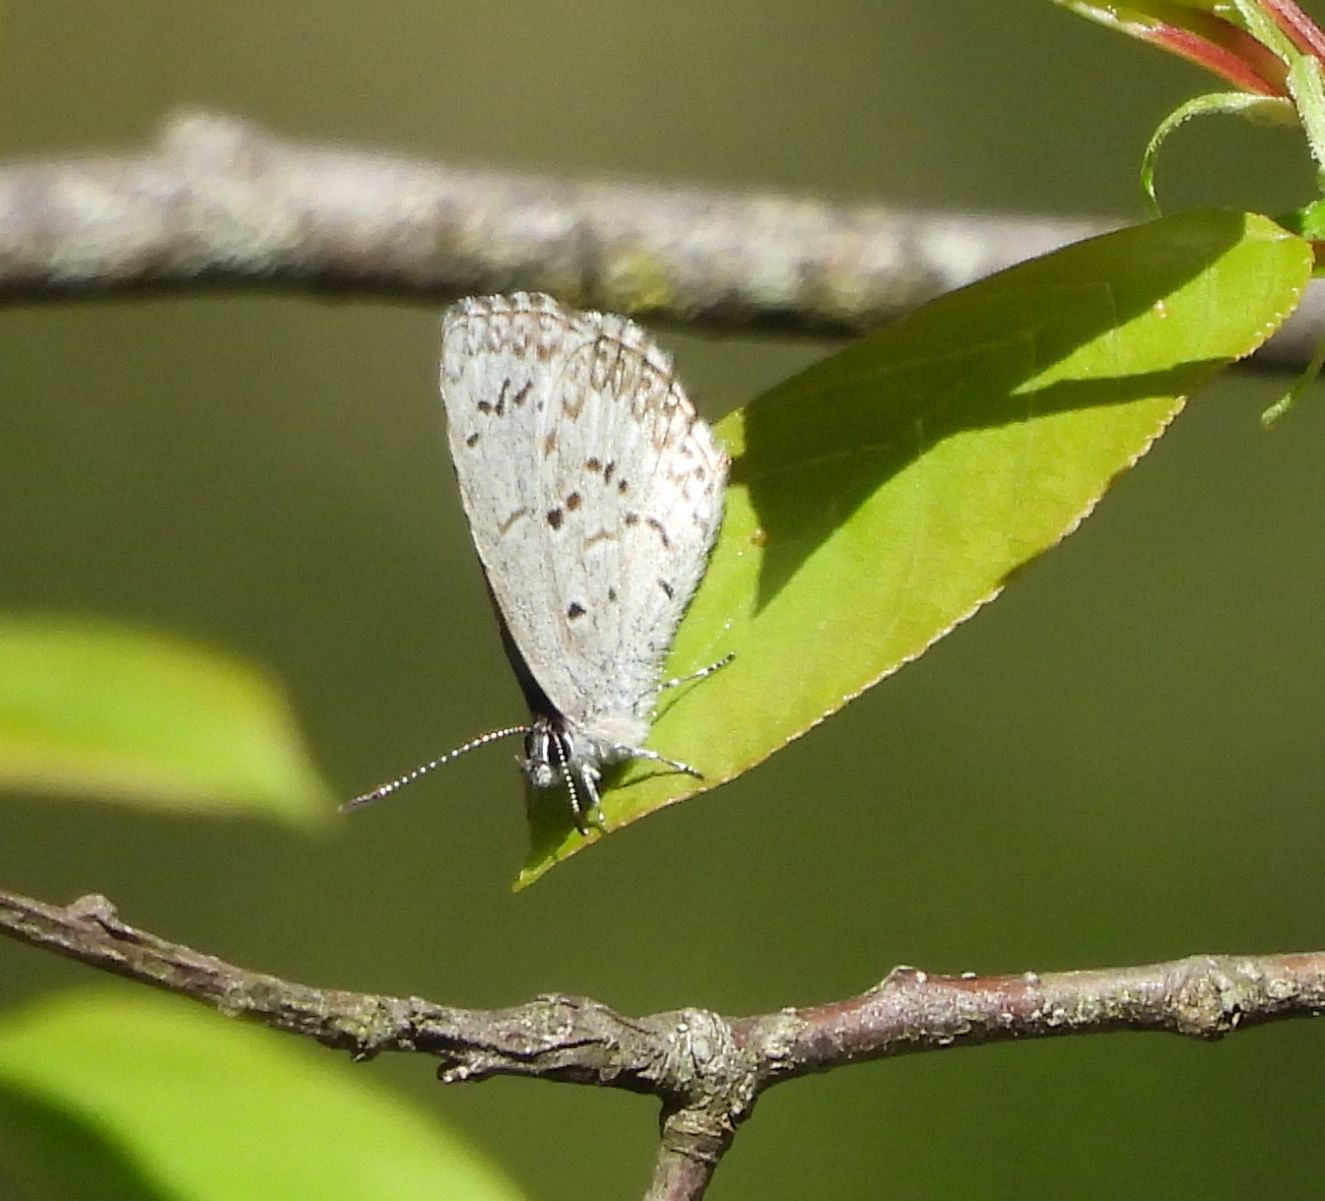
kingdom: Animalia
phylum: Arthropoda
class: Insecta
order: Lepidoptera
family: Lycaenidae
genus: Celastrina
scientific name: Celastrina lucia
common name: Lucia azure
